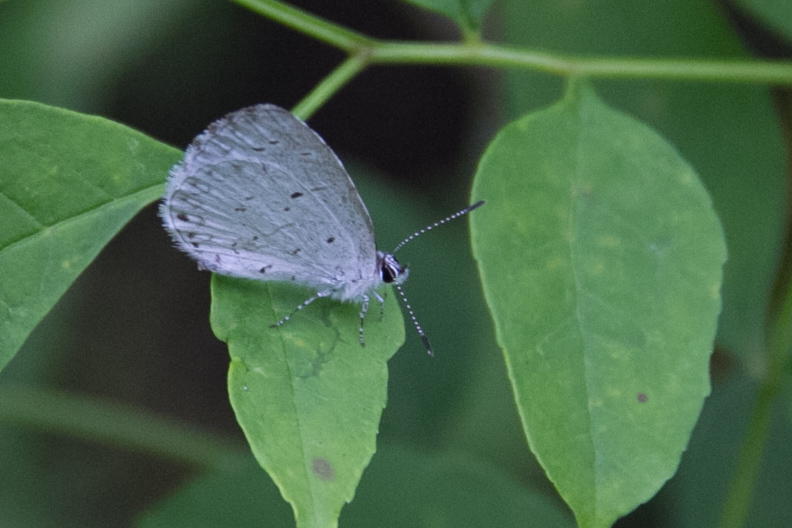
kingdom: Animalia
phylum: Arthropoda
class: Insecta
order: Lepidoptera
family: Lycaenidae
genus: Cyaniris
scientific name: Cyaniris neglecta
